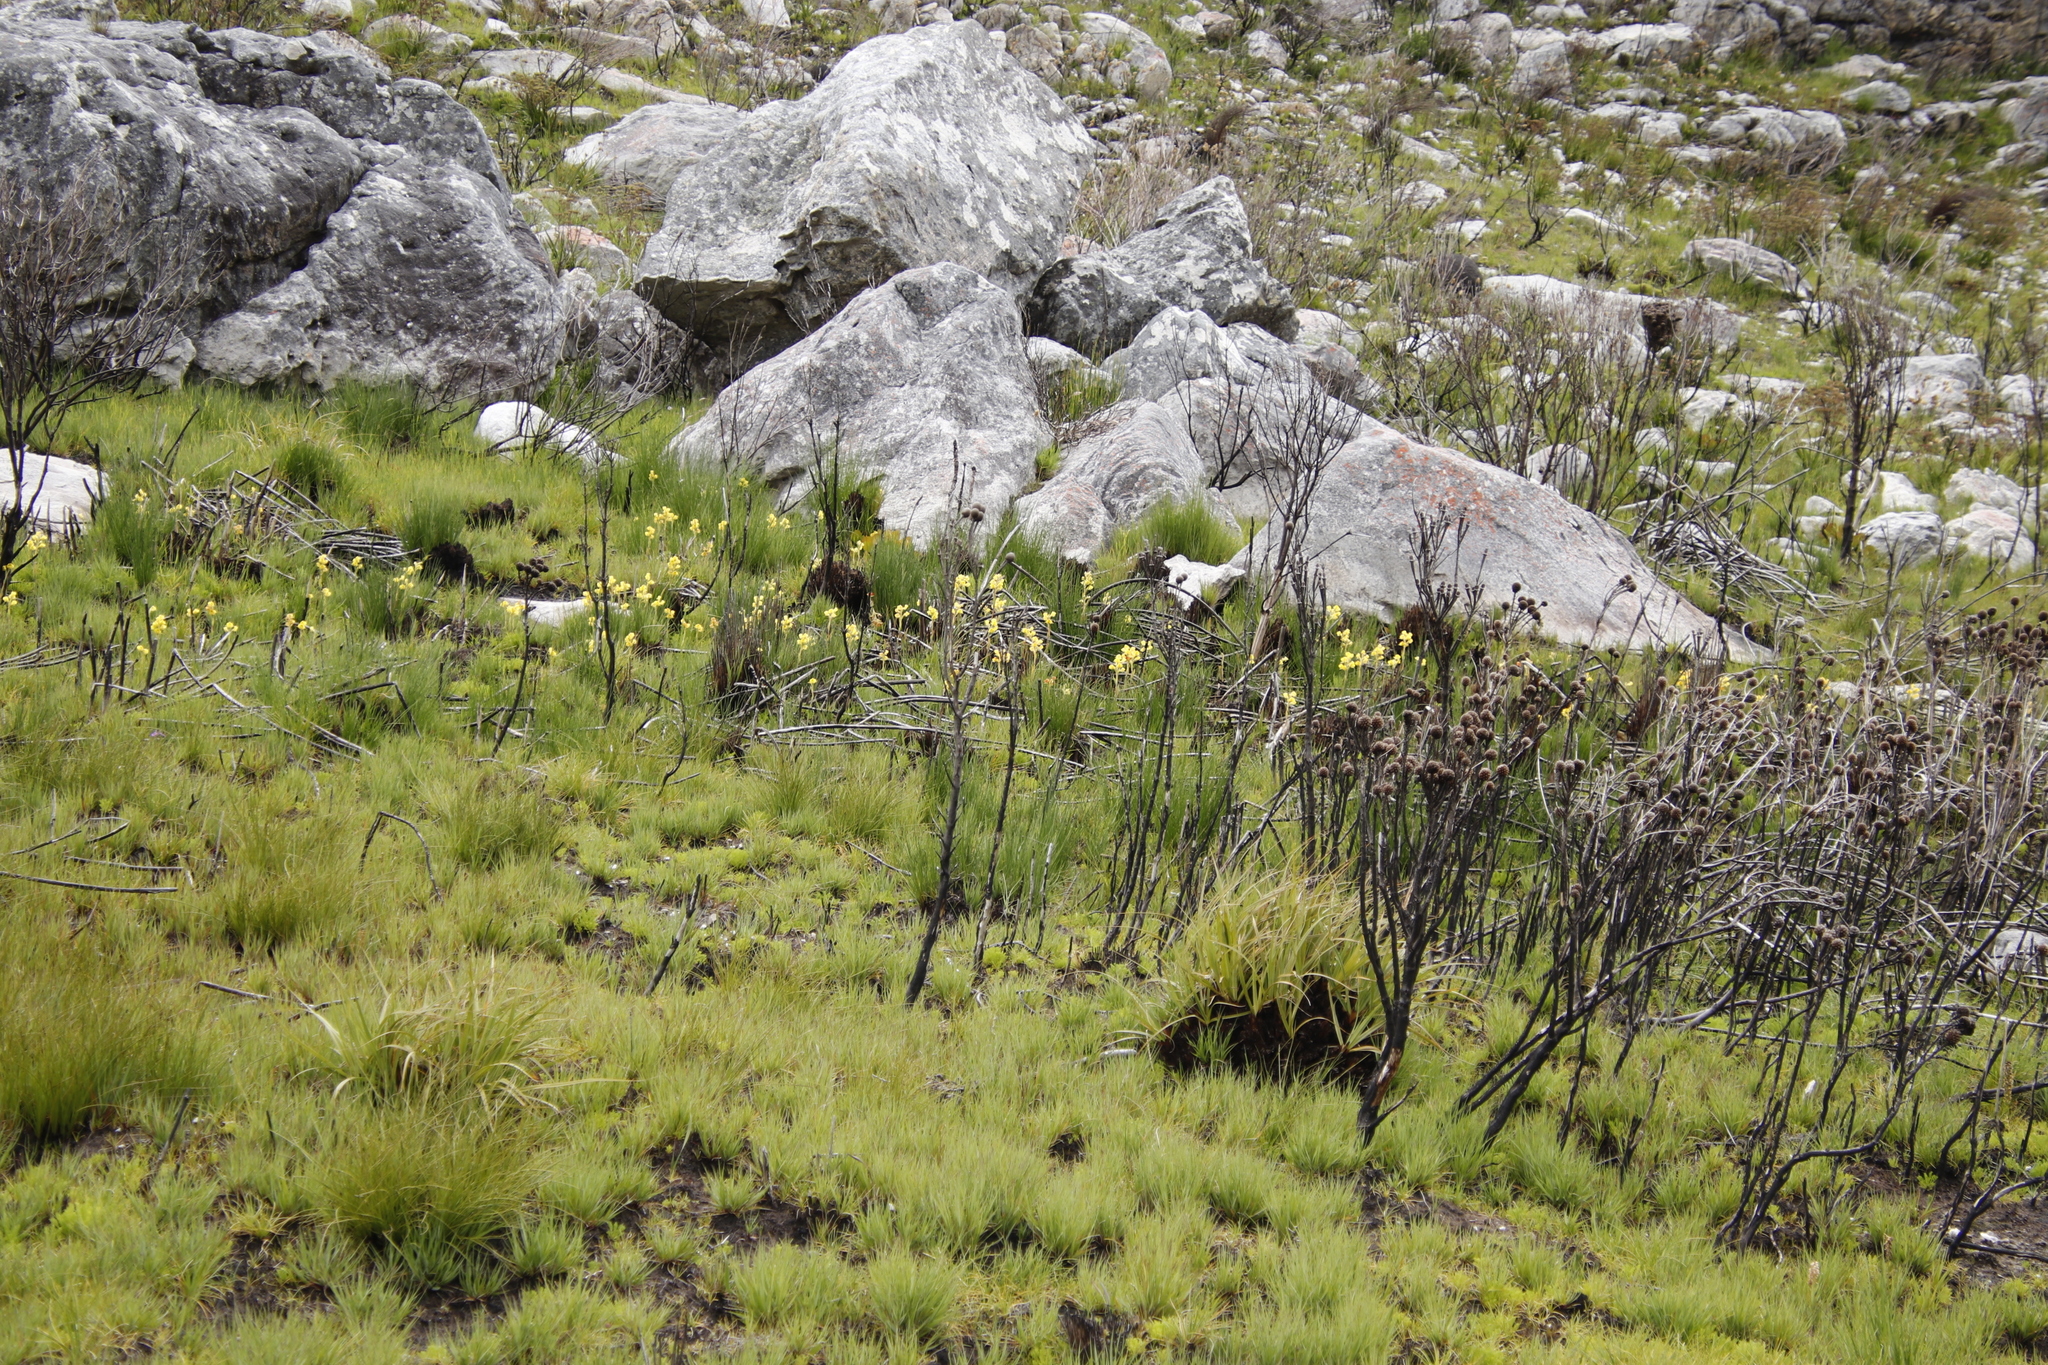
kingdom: Plantae
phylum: Tracheophyta
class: Liliopsida
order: Asparagales
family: Orchidaceae
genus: Pterygodium
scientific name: Pterygodium acutifolium
